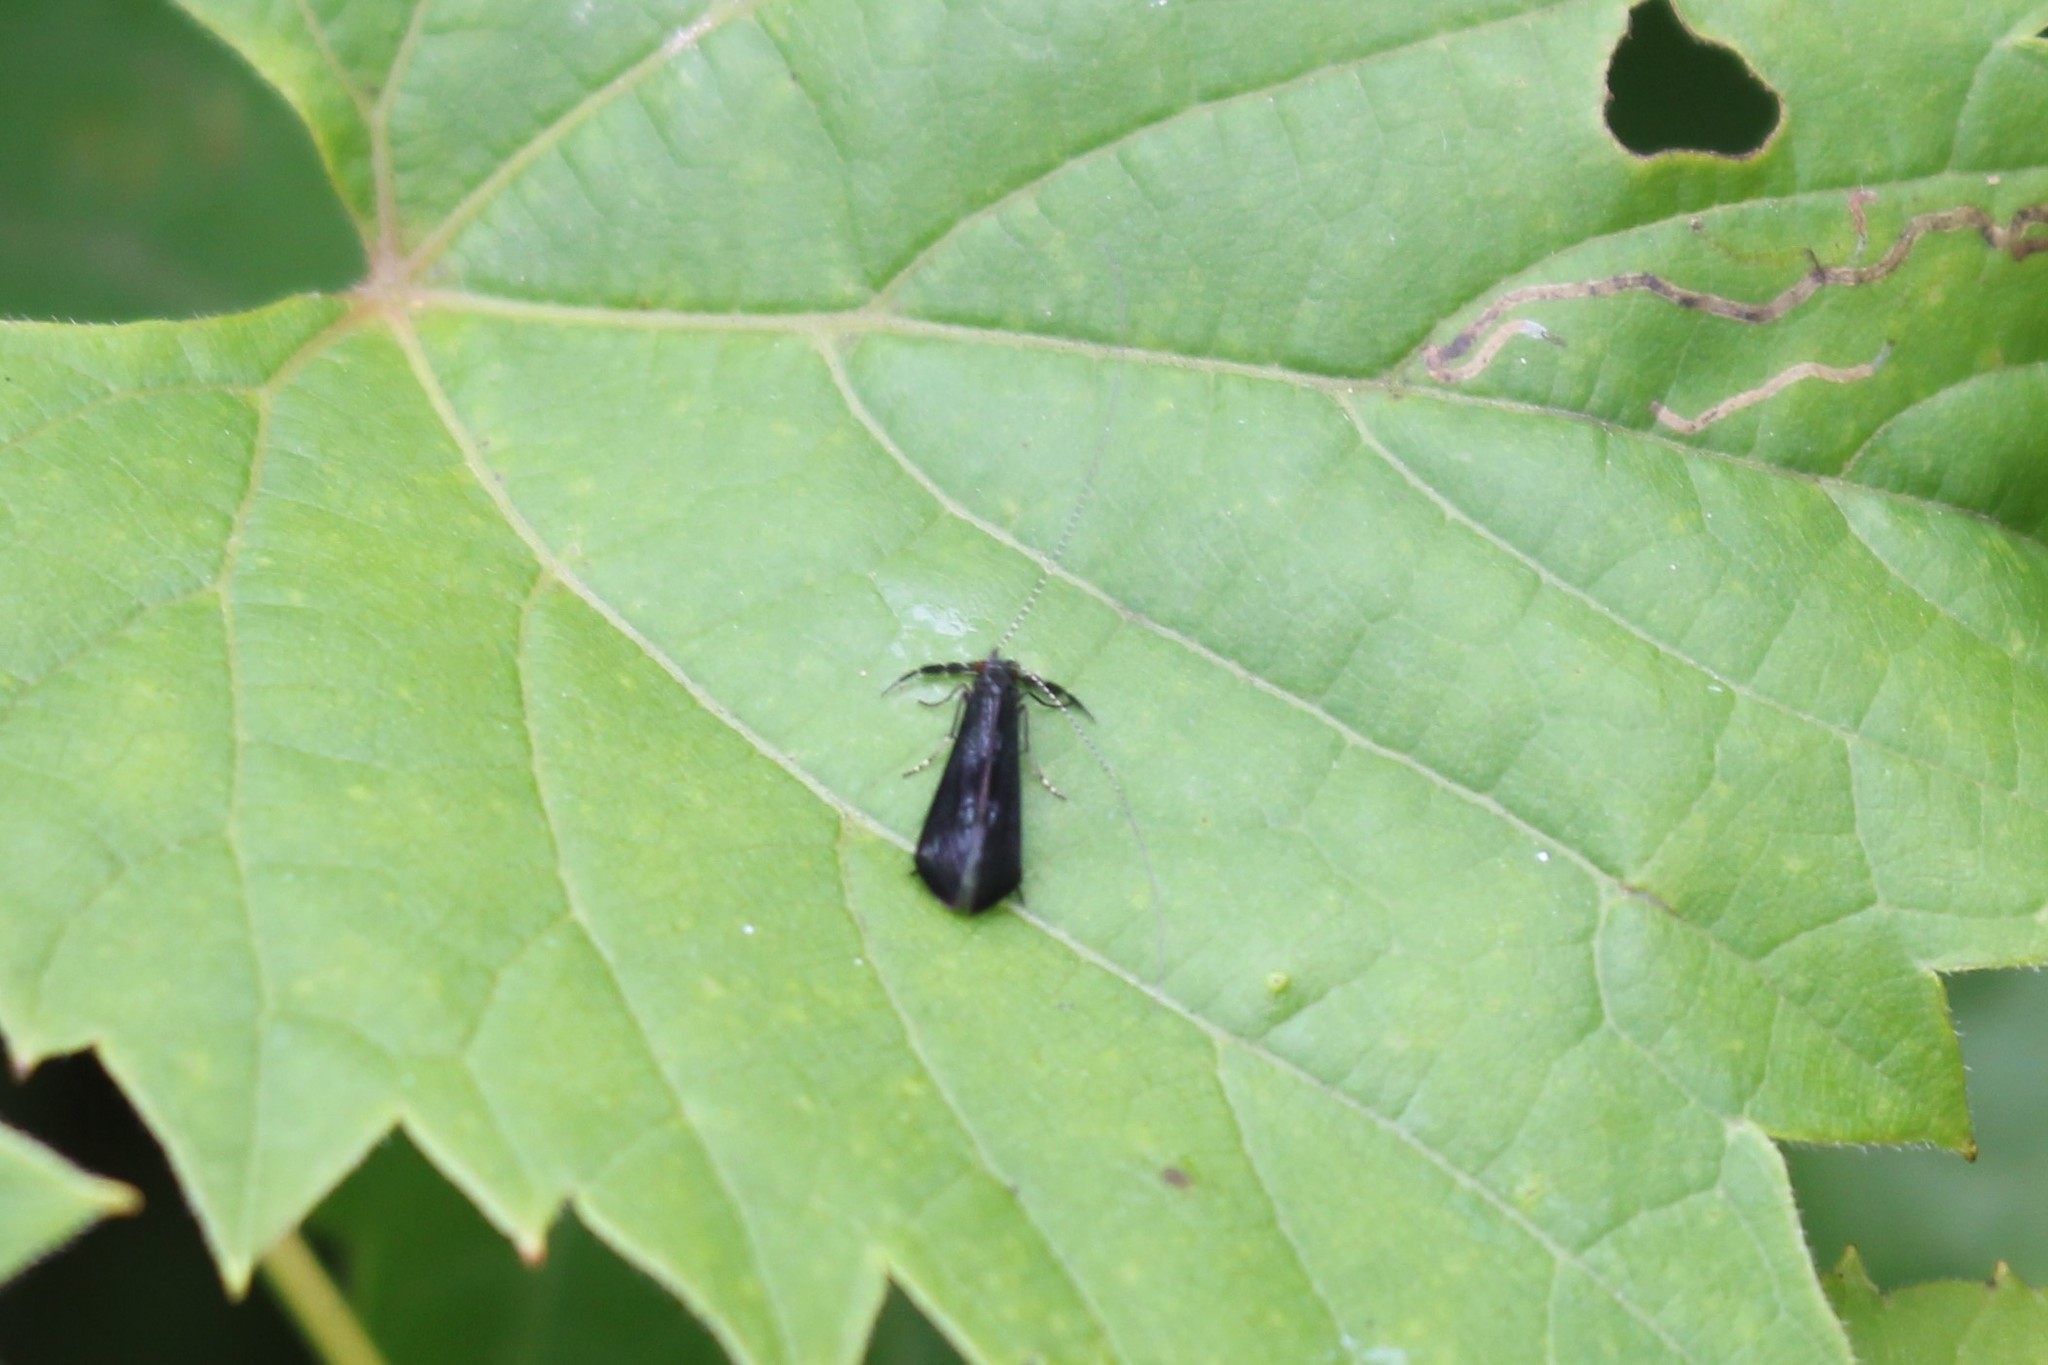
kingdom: Animalia
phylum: Arthropoda
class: Insecta
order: Trichoptera
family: Leptoceridae
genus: Mystacides
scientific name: Mystacides sepulchralis
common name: Black dancer caddisfly
